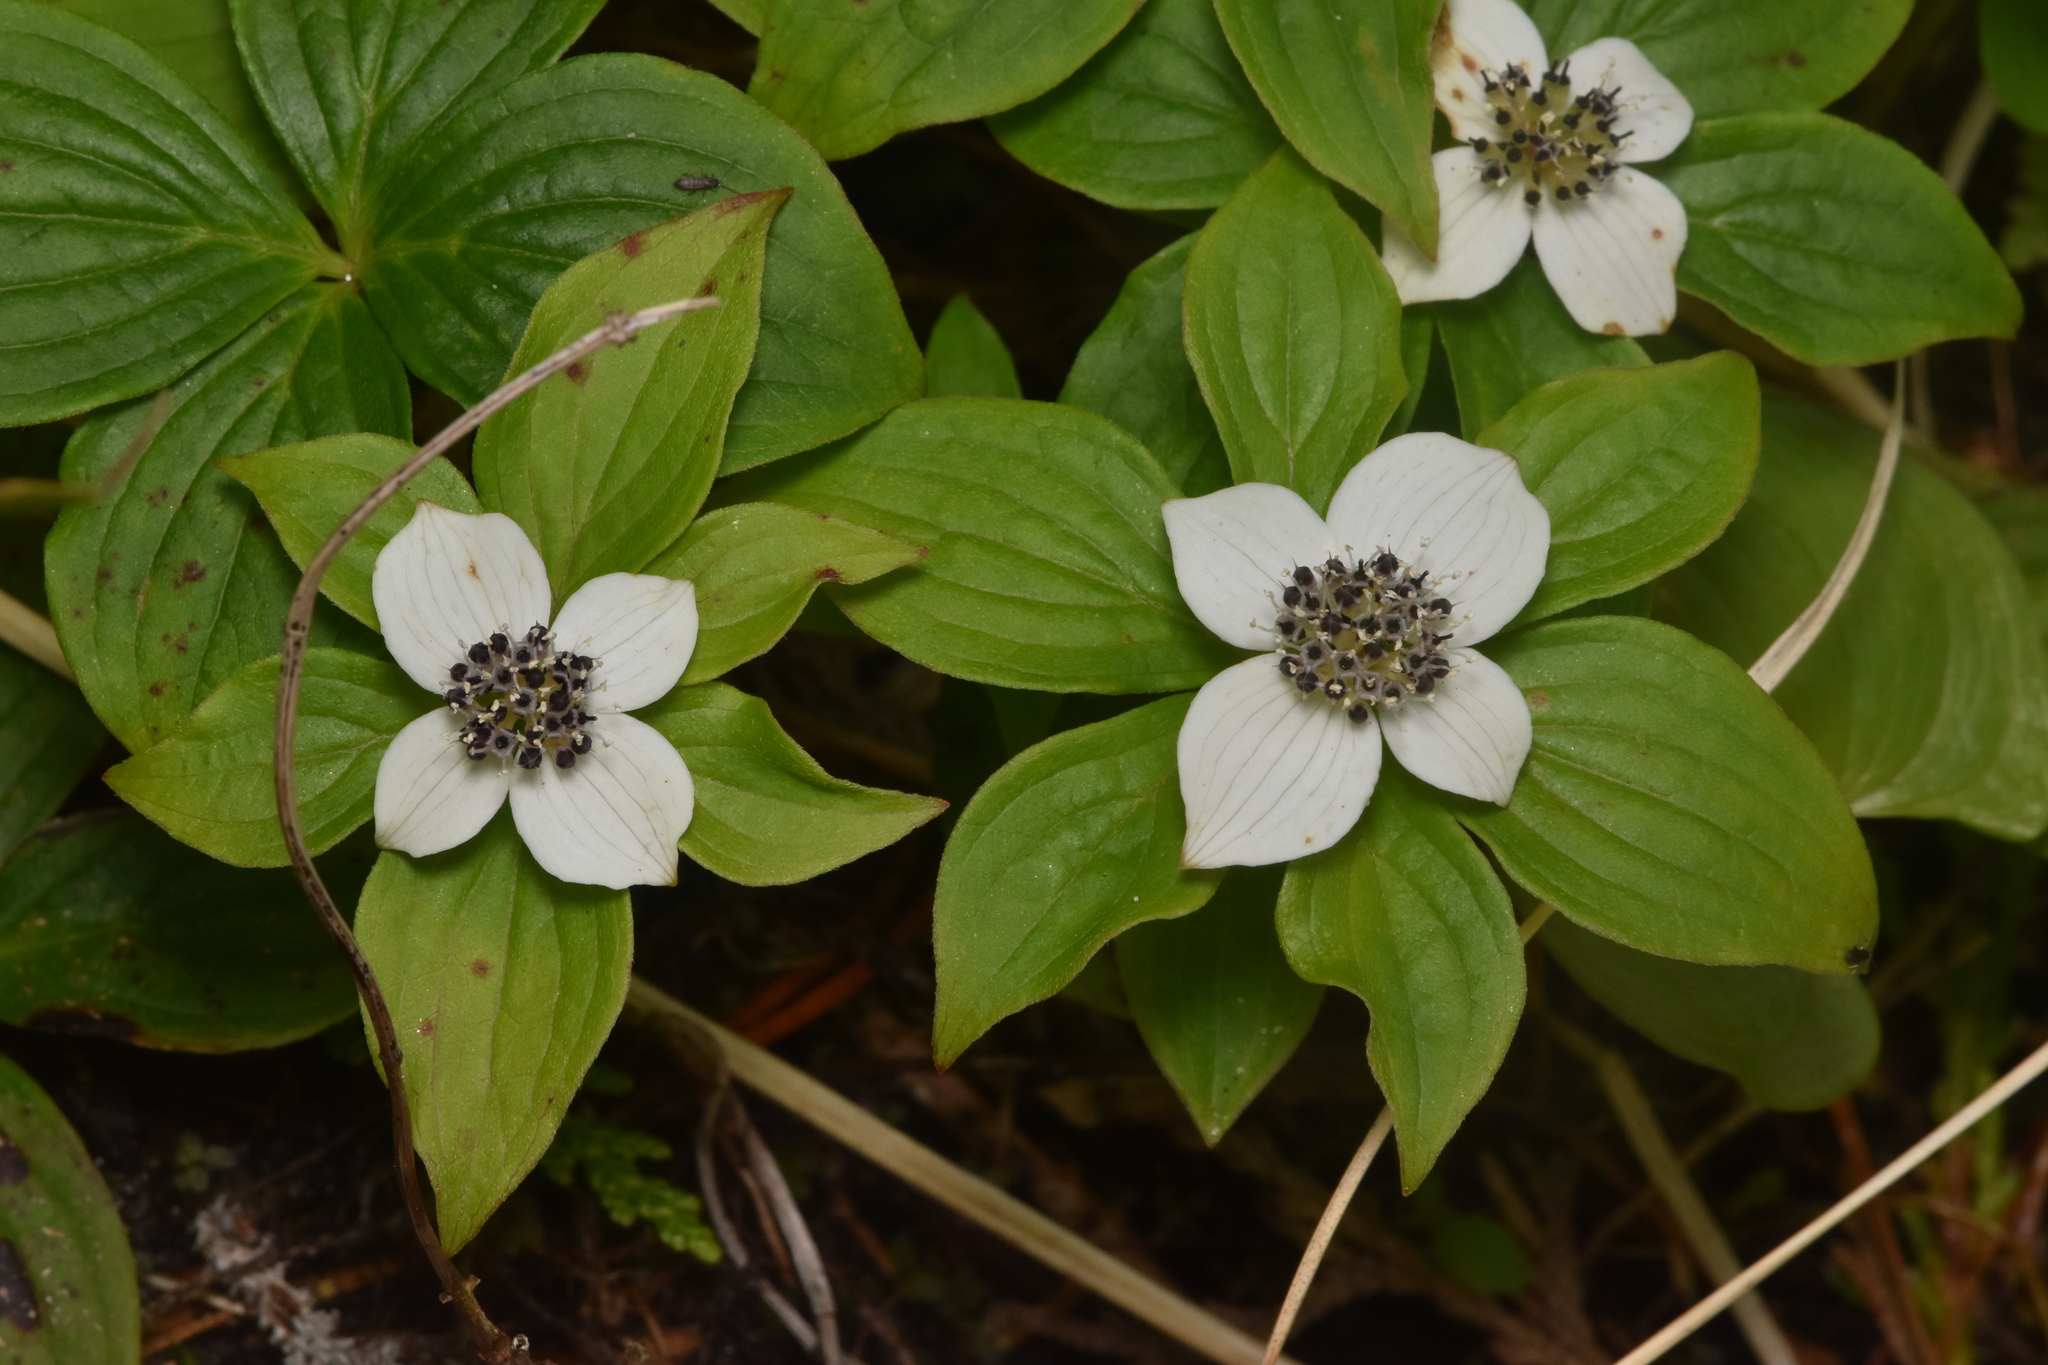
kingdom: Plantae
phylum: Tracheophyta
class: Magnoliopsida
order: Cornales
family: Cornaceae
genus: Cornus
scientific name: Cornus unalaschkensis
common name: Alaska bunchberry
